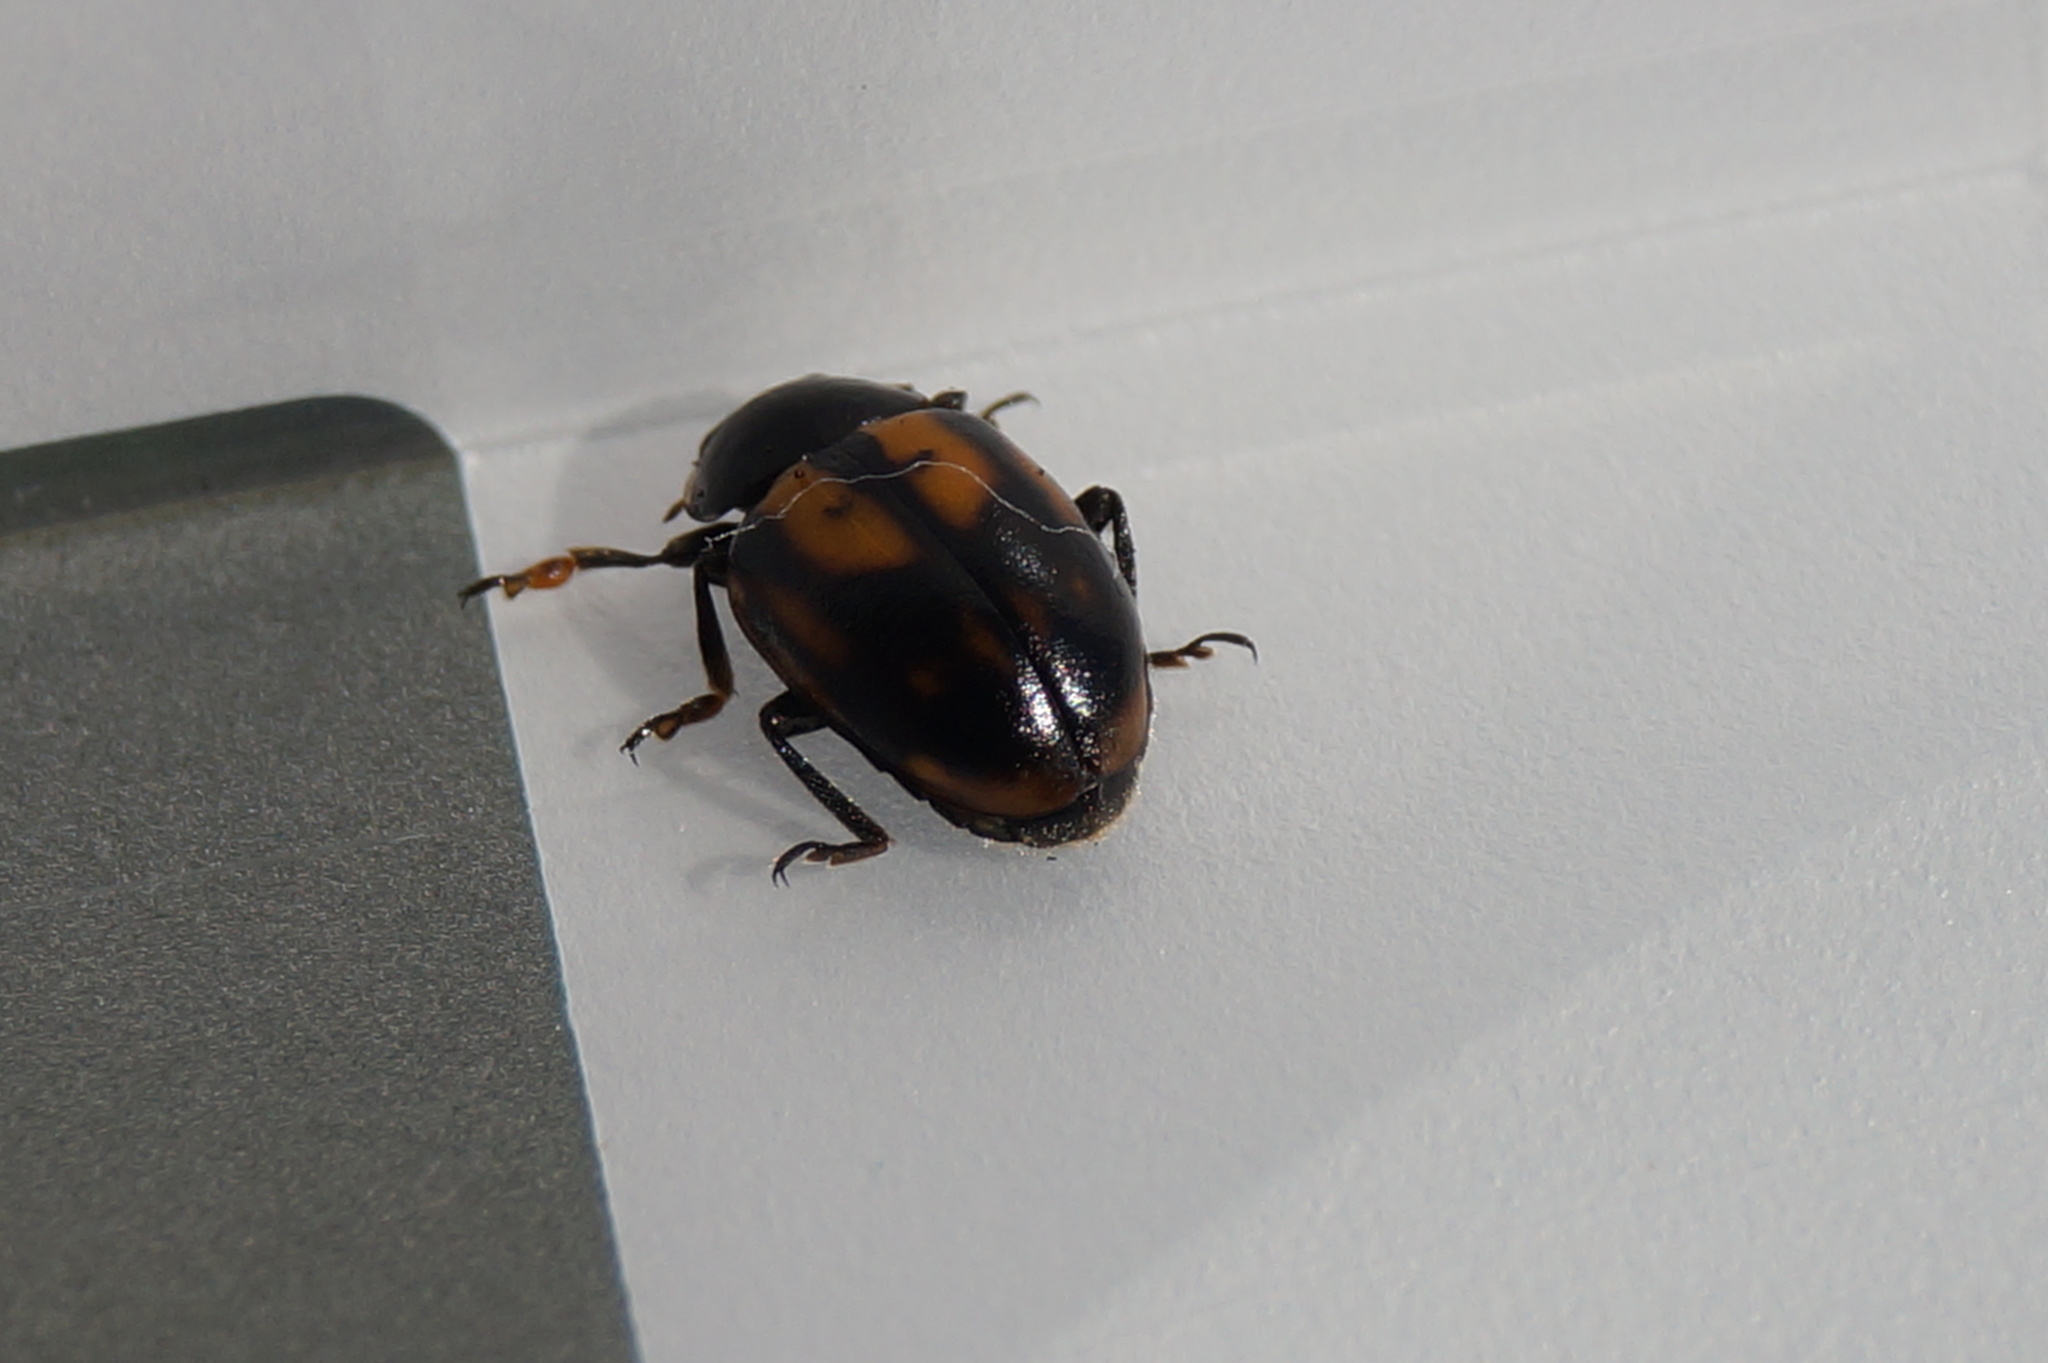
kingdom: Animalia
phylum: Arthropoda
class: Insecta
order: Coleoptera
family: Coccinellidae
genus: Hippodamia
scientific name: Hippodamia variegata
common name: Ladybird beetle
